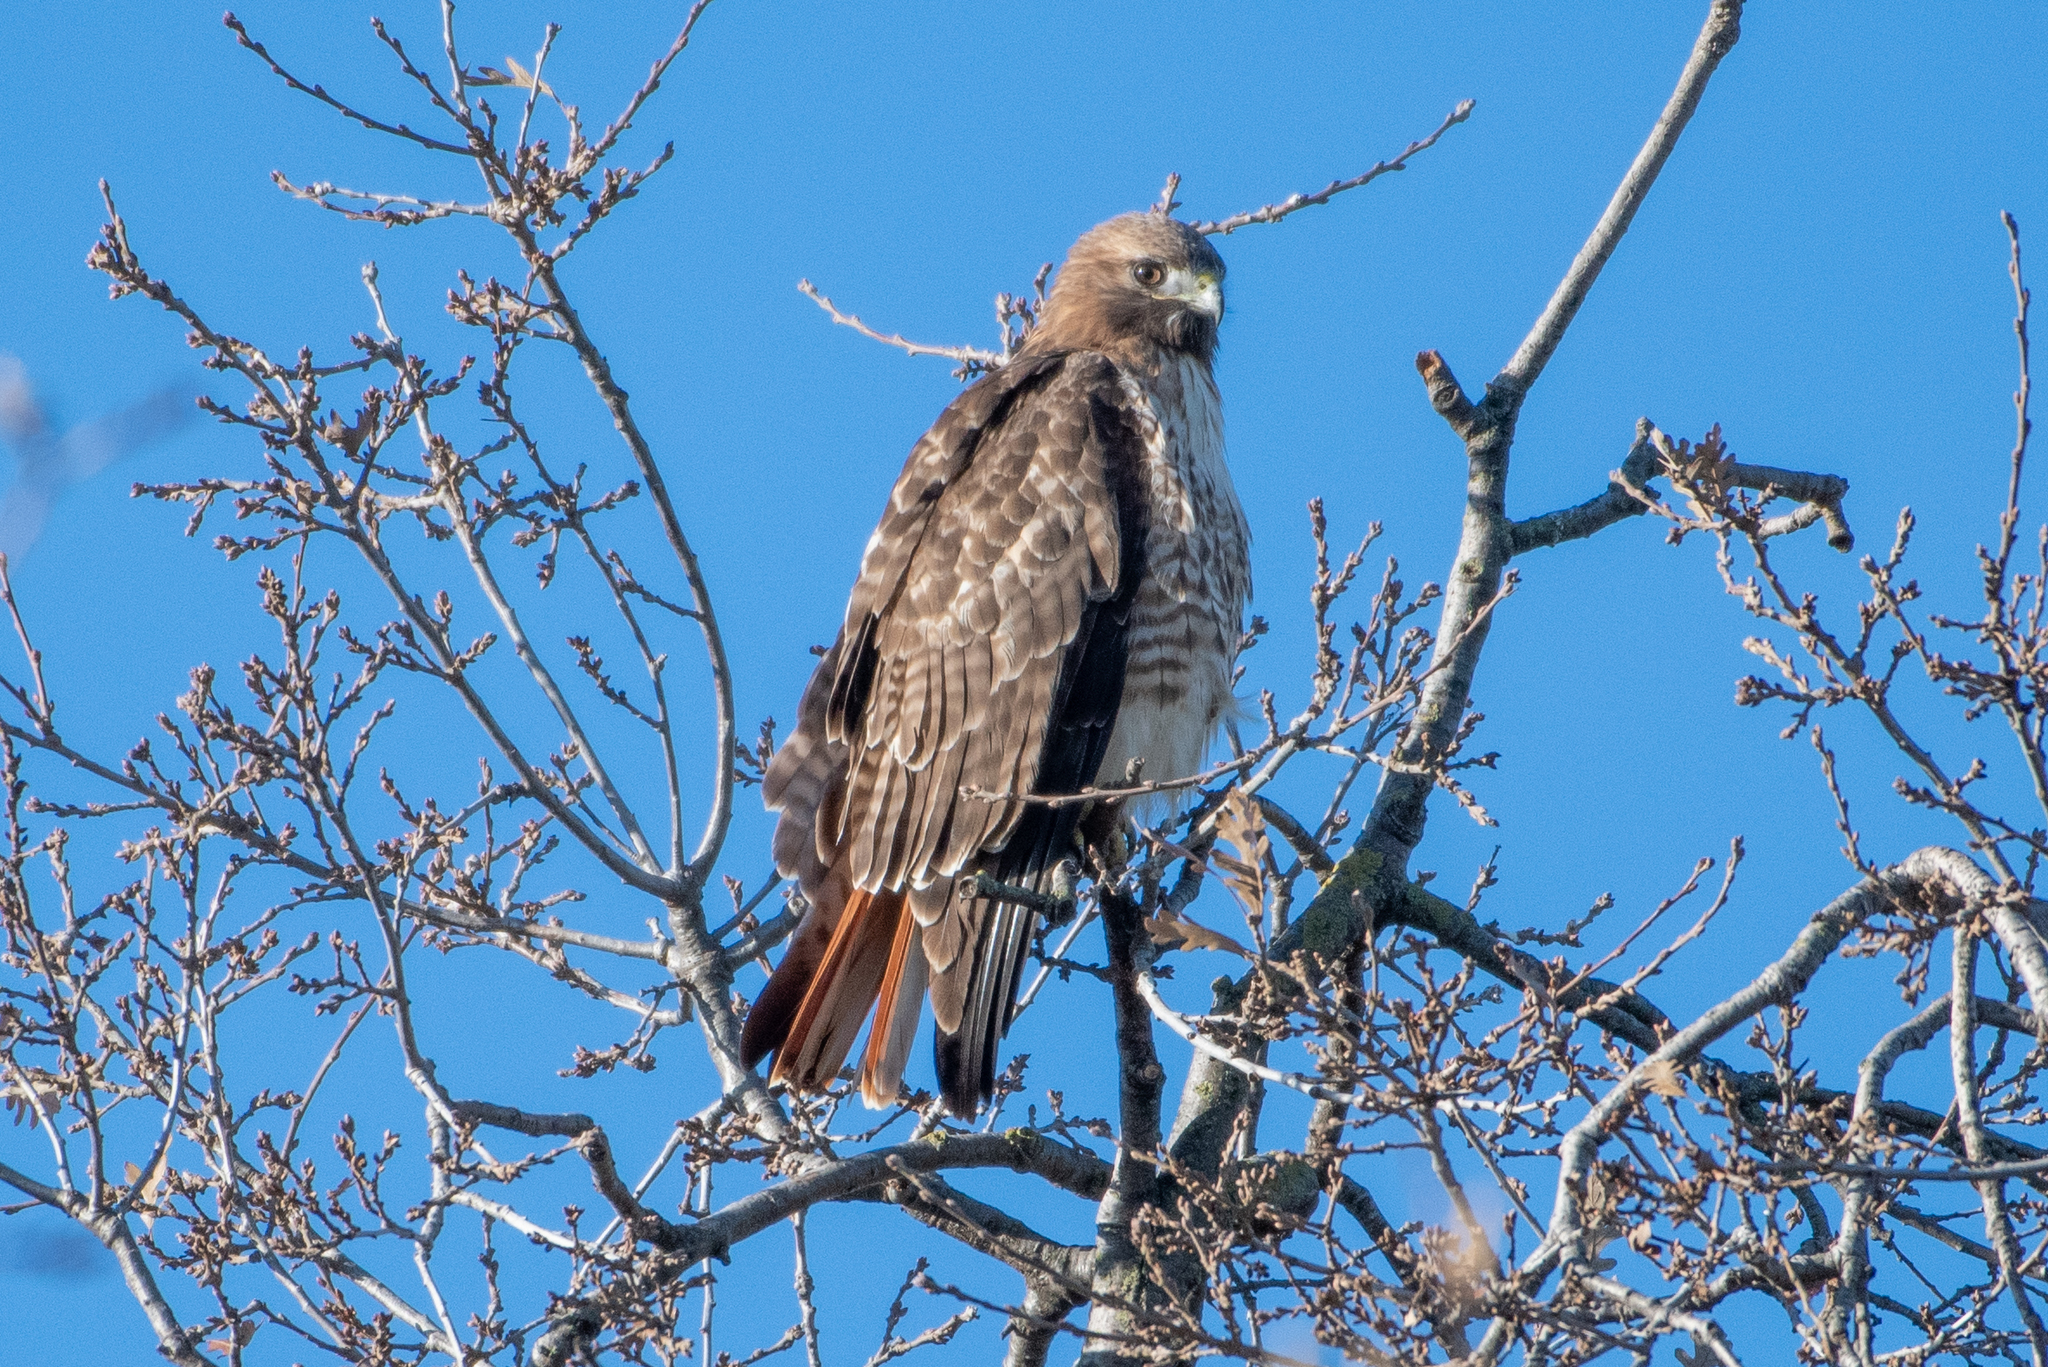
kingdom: Animalia
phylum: Chordata
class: Aves
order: Accipitriformes
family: Accipitridae
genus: Buteo
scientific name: Buteo jamaicensis
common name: Red-tailed hawk
